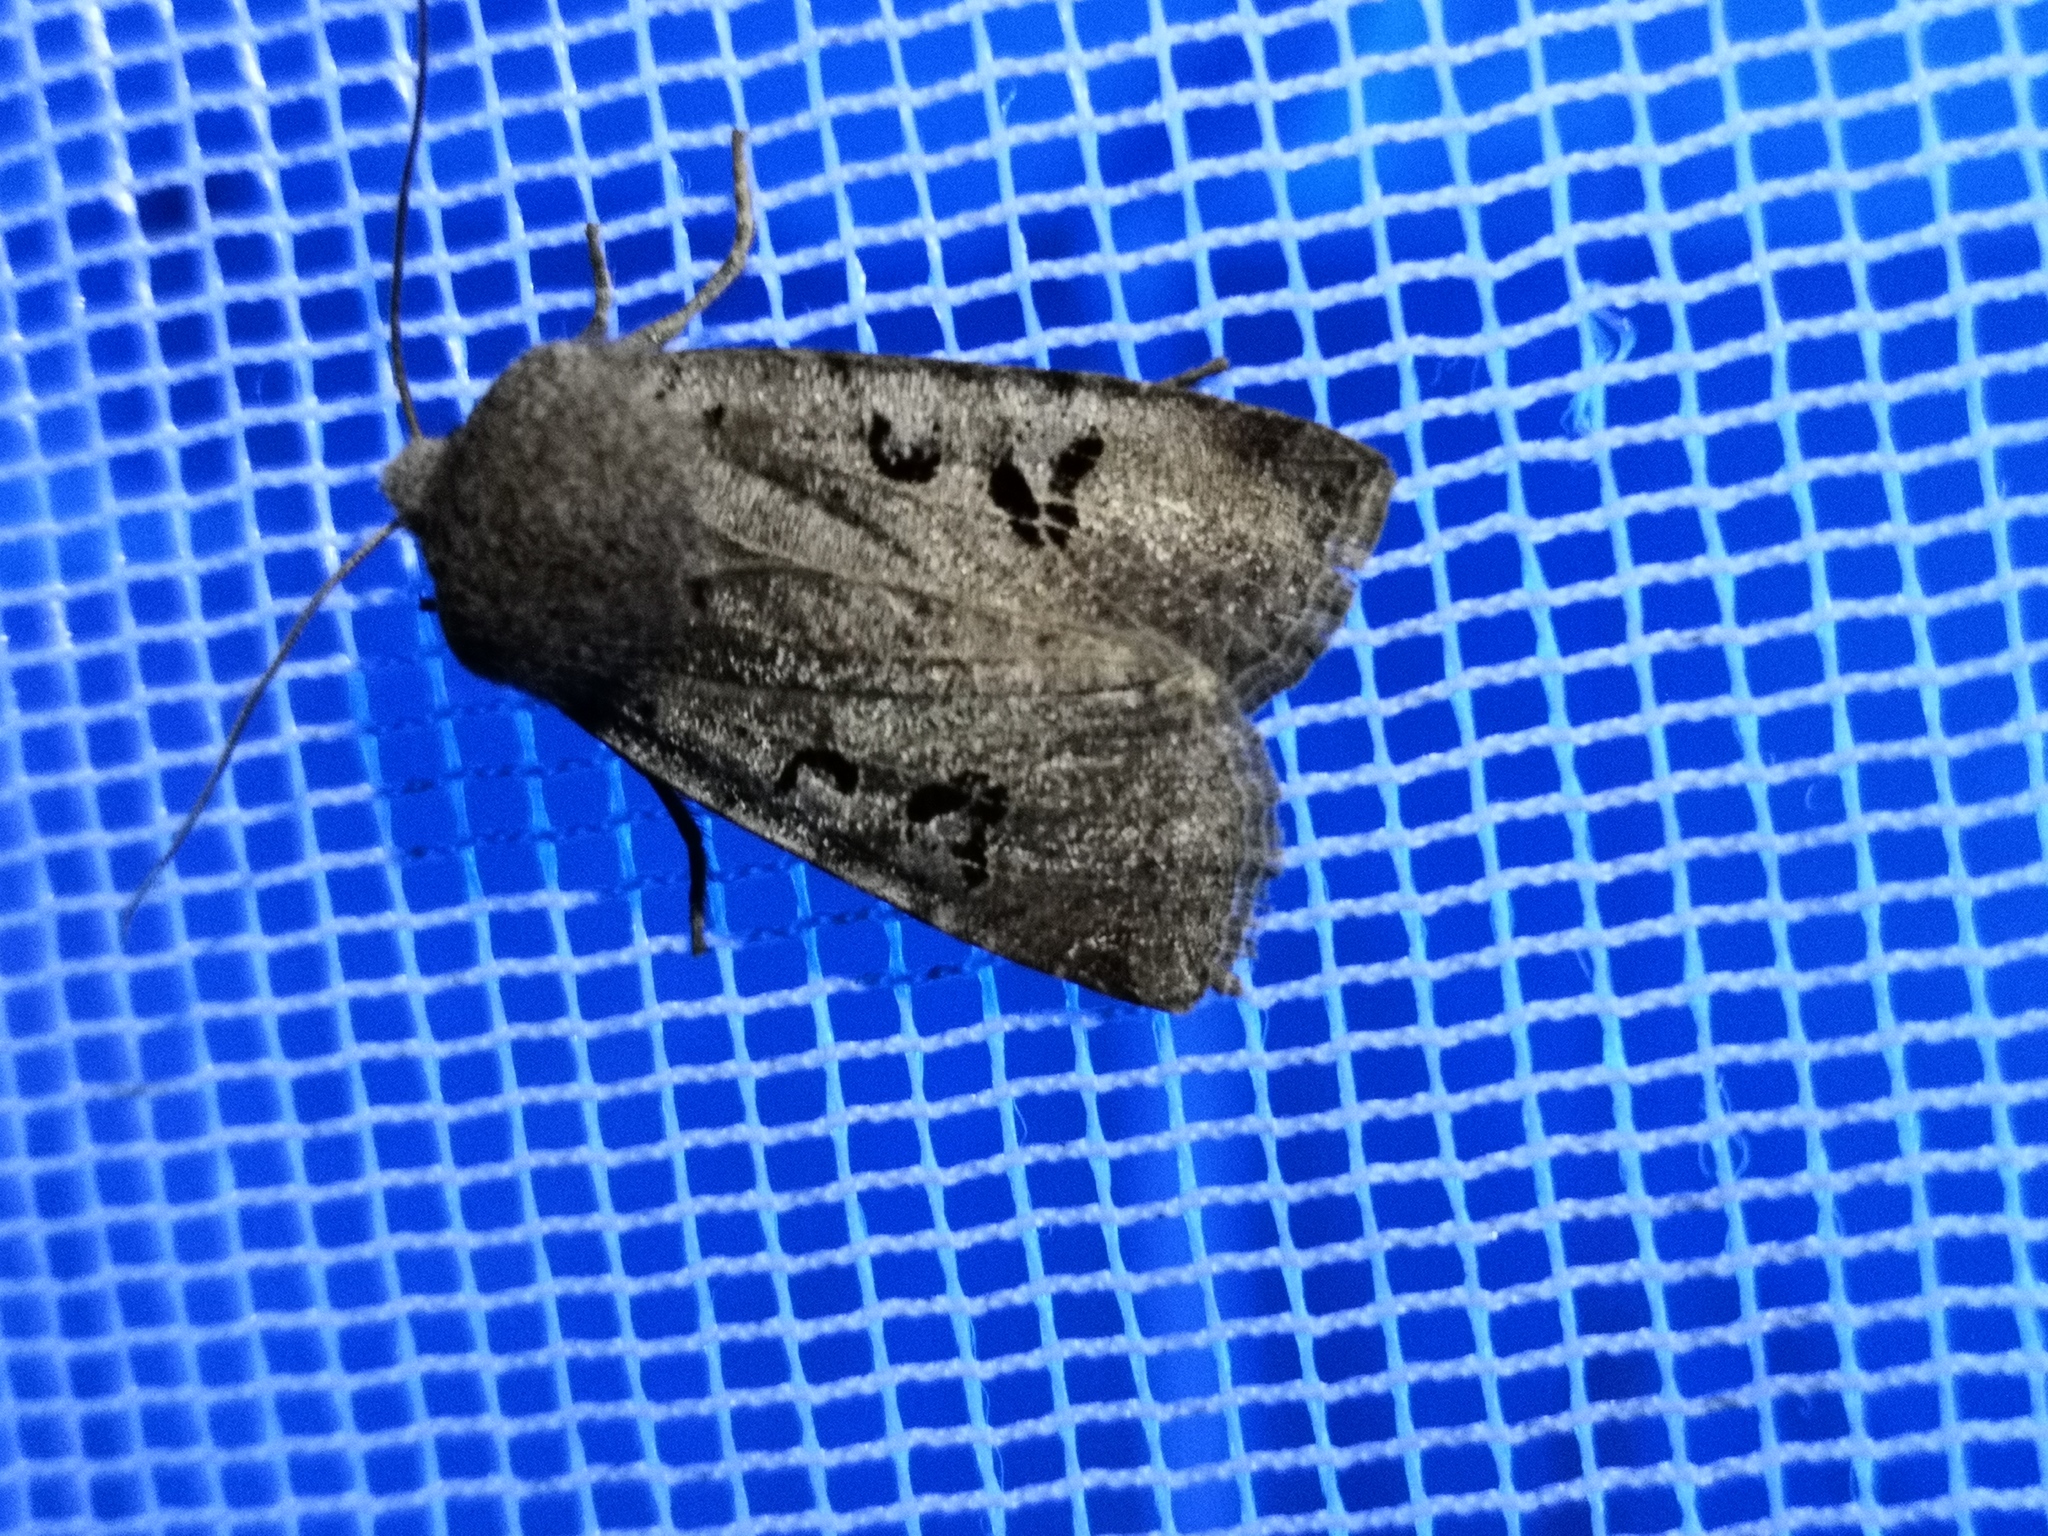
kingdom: Animalia
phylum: Arthropoda
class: Insecta
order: Lepidoptera
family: Noctuidae
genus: Conistra
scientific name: Conistra rubiginosa
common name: Black-spotted chestnut
